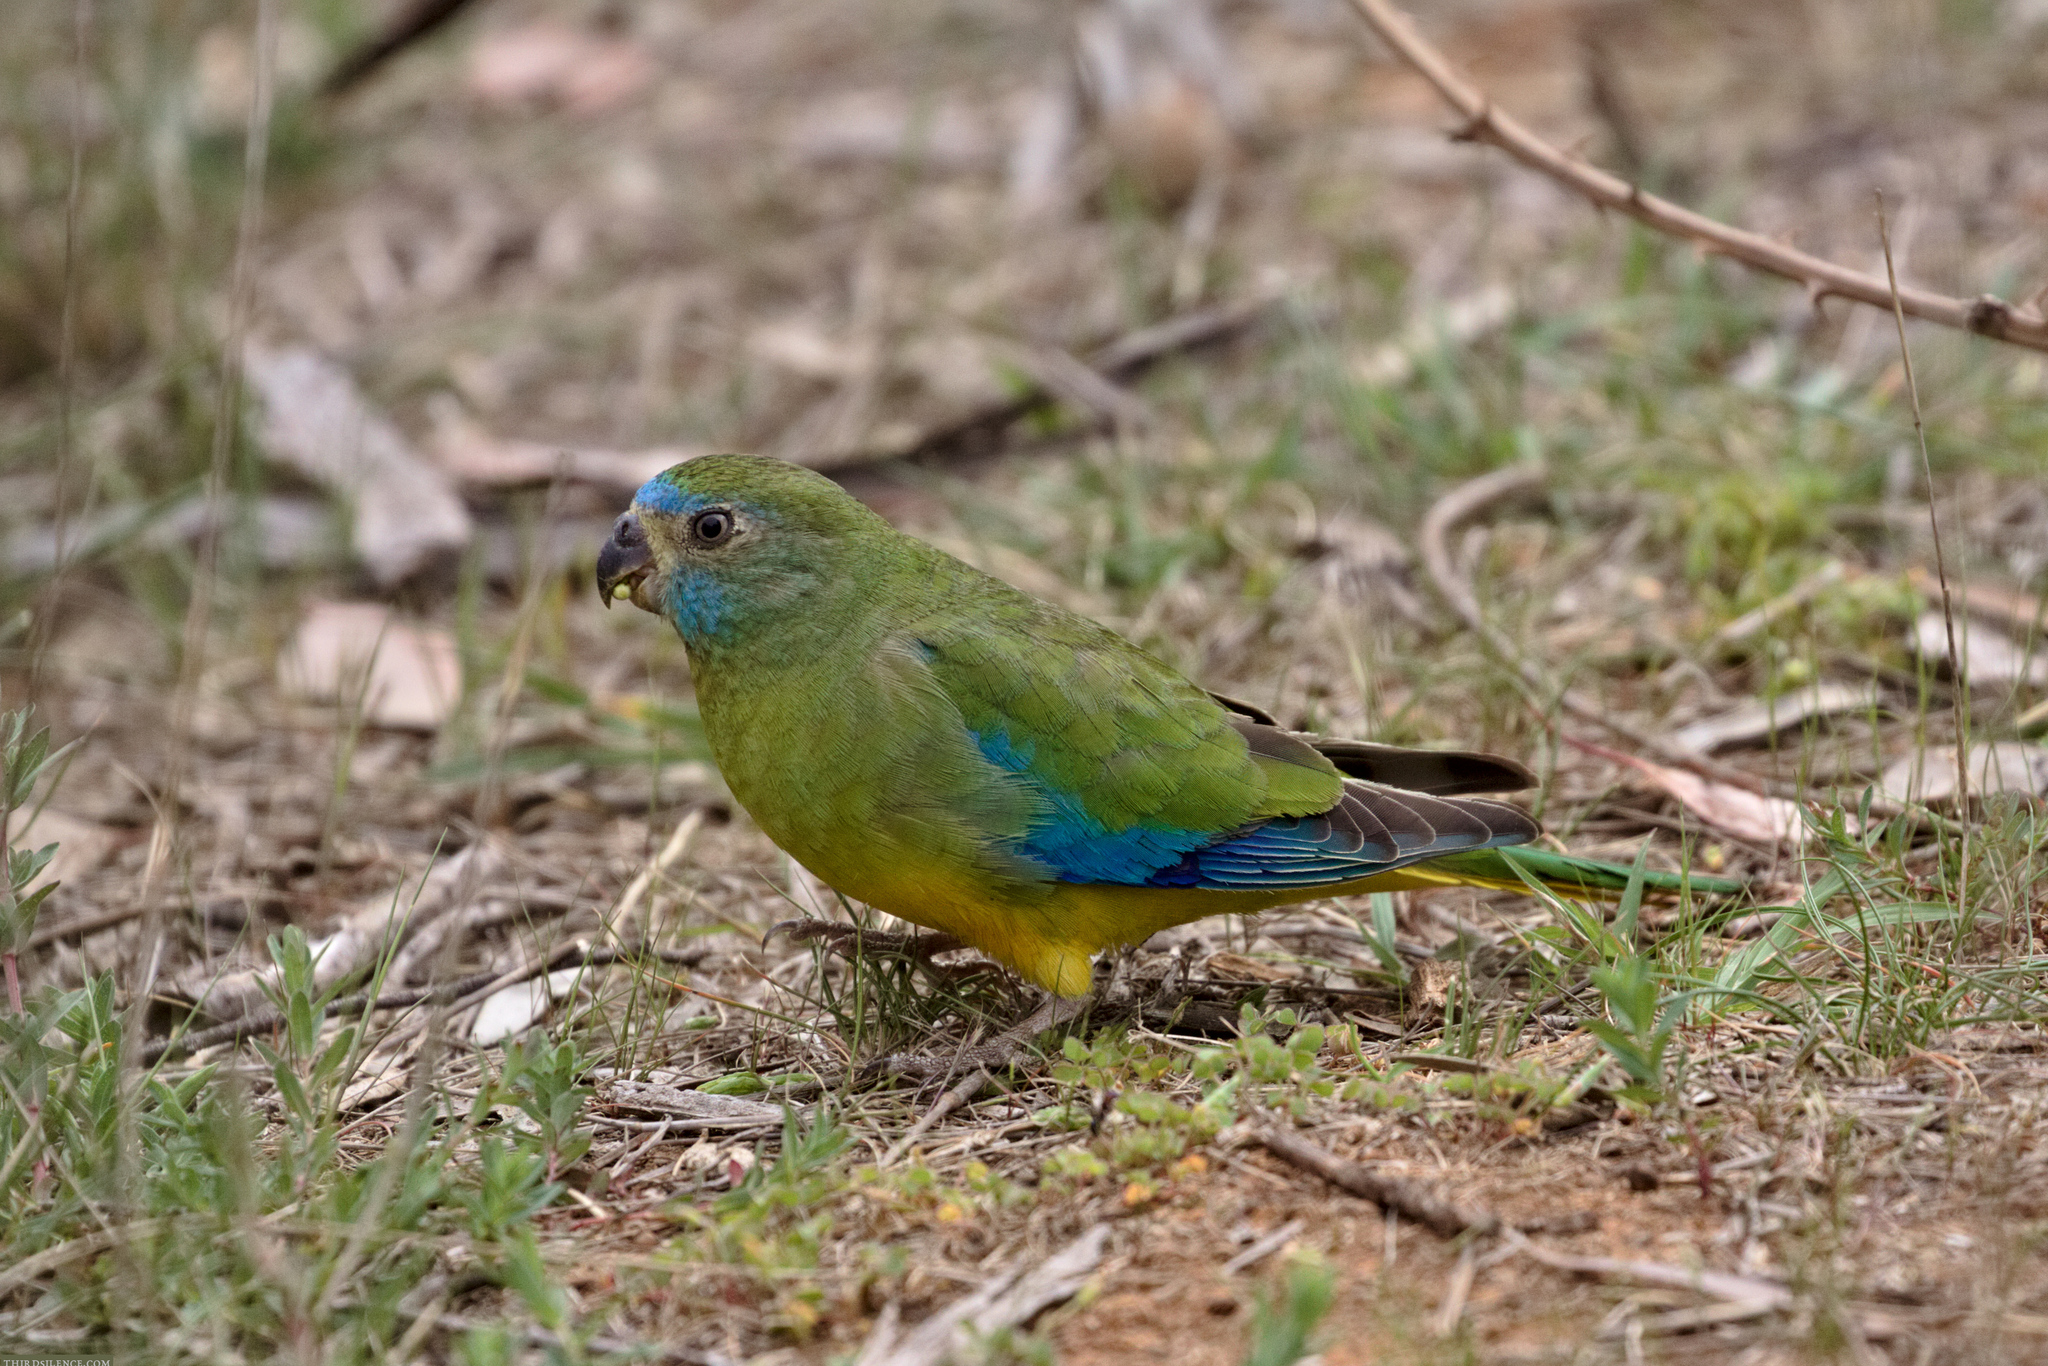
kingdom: Animalia
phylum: Chordata
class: Aves
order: Psittaciformes
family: Psittacidae
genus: Neophema
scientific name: Neophema pulchella
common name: Turquoise parrot
